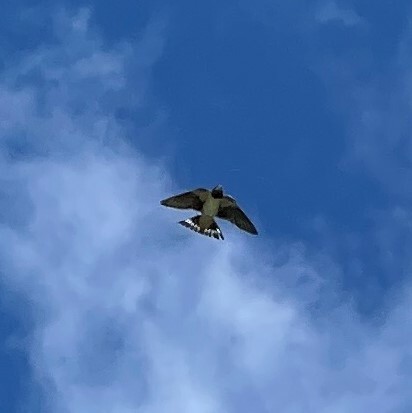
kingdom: Animalia
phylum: Chordata
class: Aves
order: Passeriformes
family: Hirundinidae
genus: Hirundo
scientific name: Hirundo rustica
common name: Barn swallow
